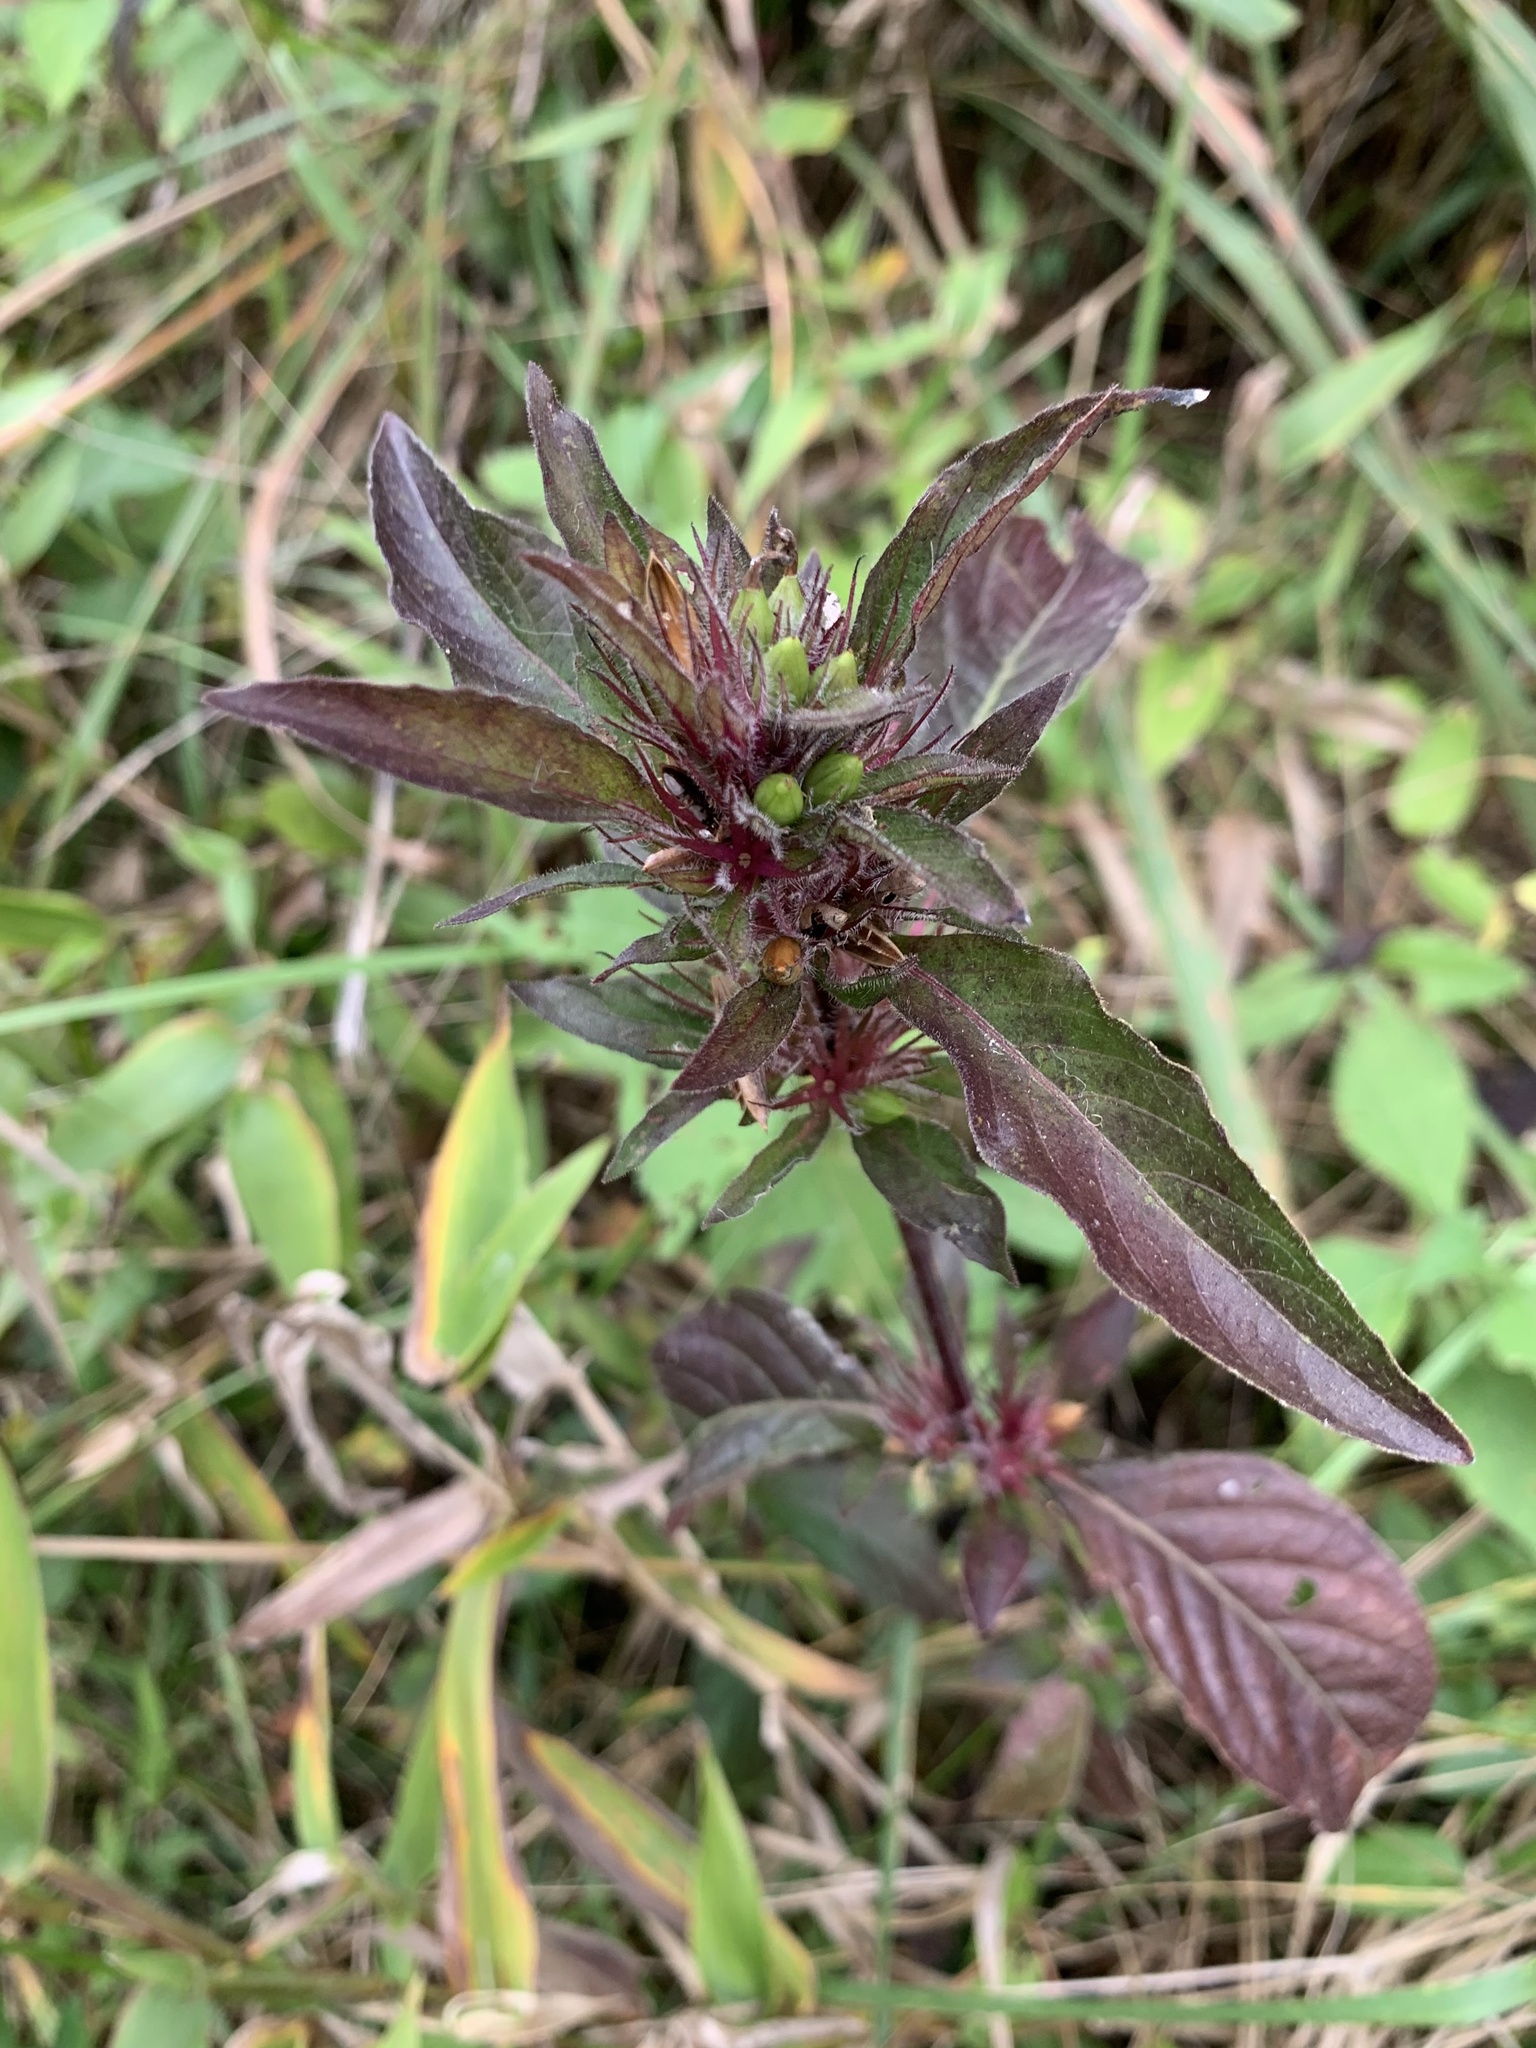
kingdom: Plantae
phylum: Tracheophyta
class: Magnoliopsida
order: Lamiales
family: Acanthaceae
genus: Ruellia
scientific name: Ruellia caroliniensis
